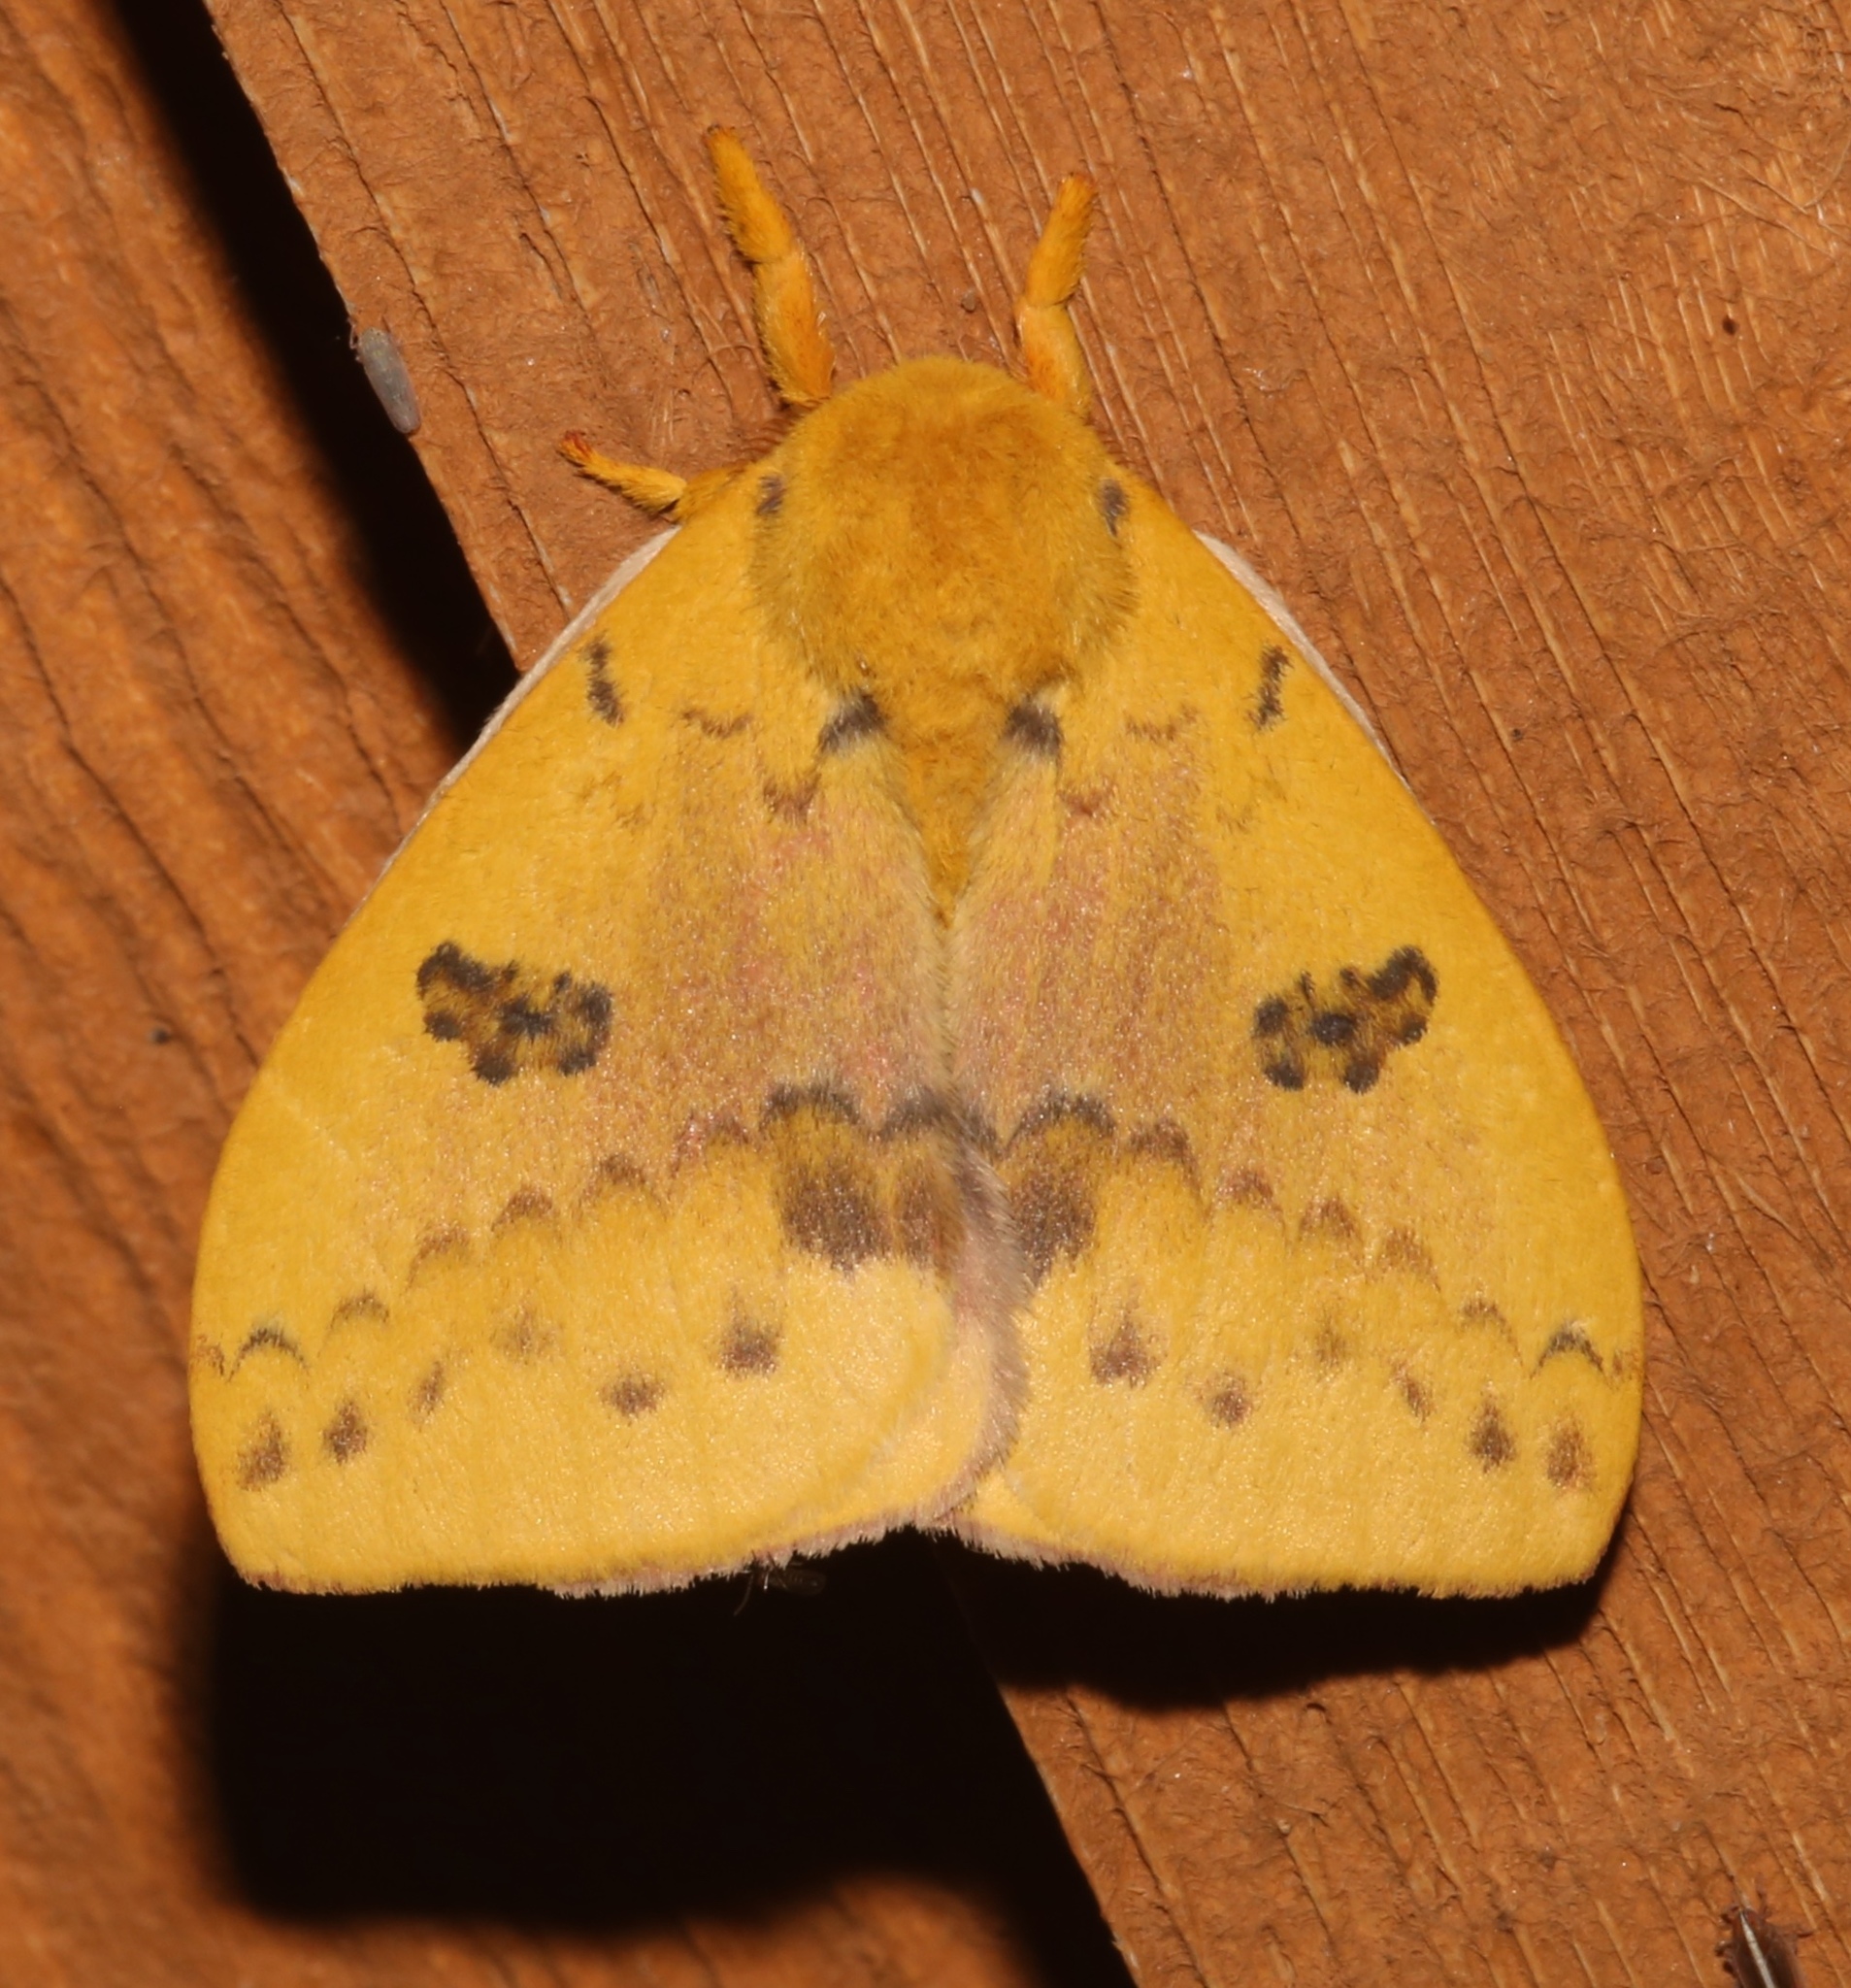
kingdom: Animalia
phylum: Arthropoda
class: Insecta
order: Lepidoptera
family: Saturniidae
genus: Automeris
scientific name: Automeris io
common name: Io moth
